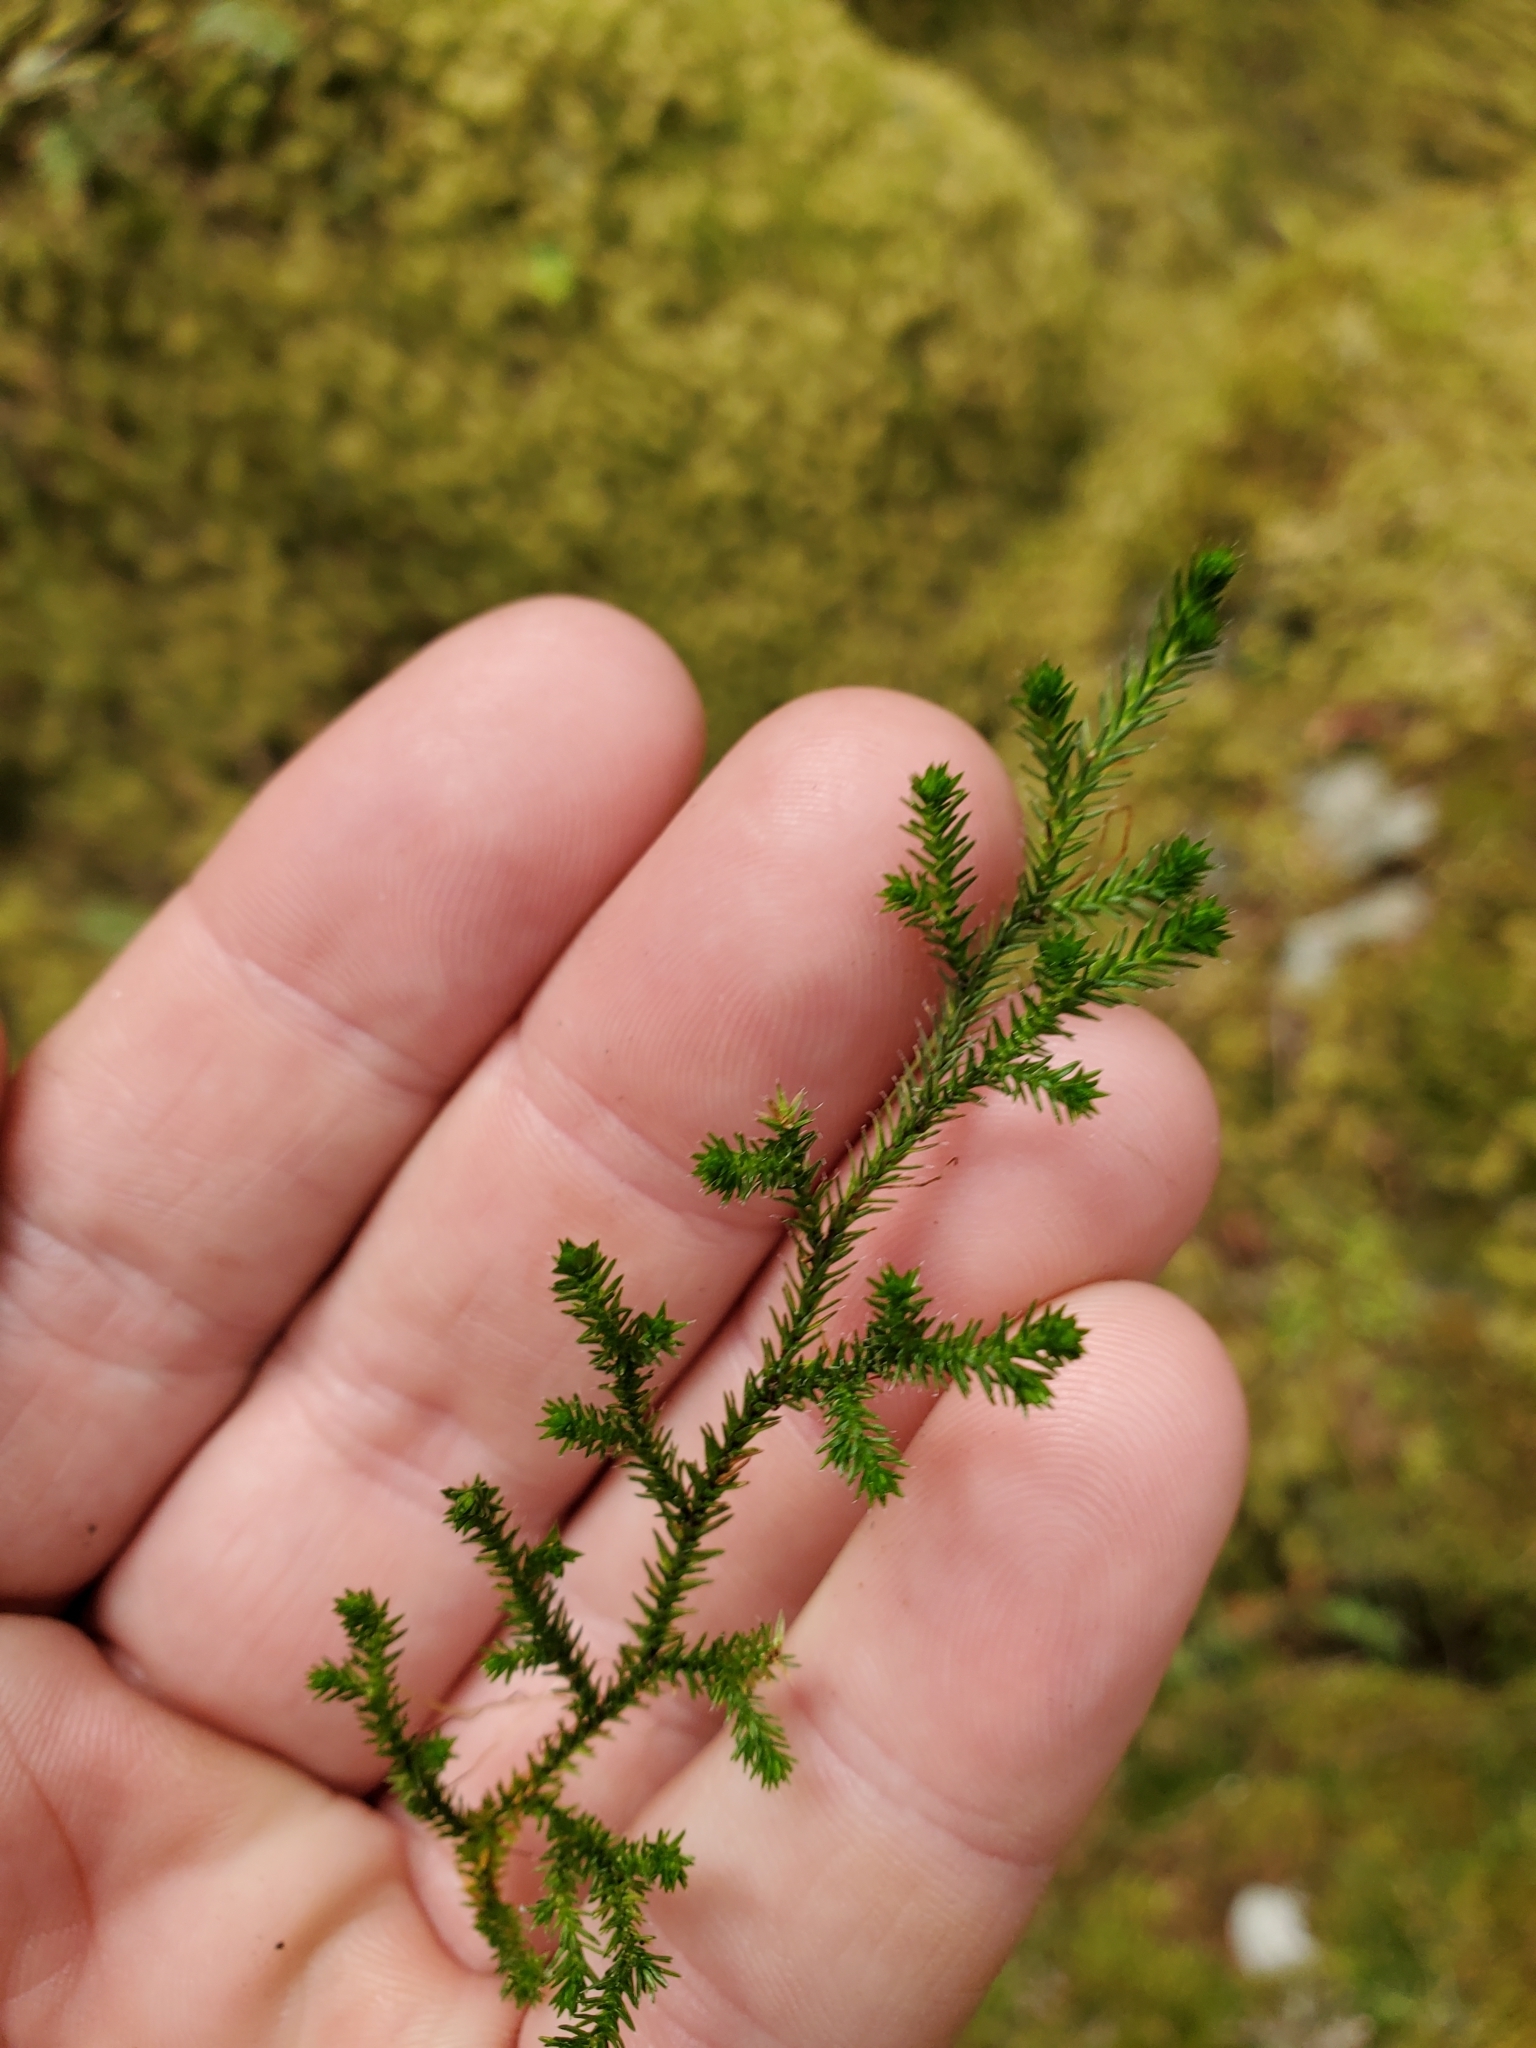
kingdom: Plantae
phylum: Tracheophyta
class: Lycopodiopsida
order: Selaginellales
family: Selaginellaceae
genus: Selaginella
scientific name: Selaginella wallacei
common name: Wallace's selaginella
